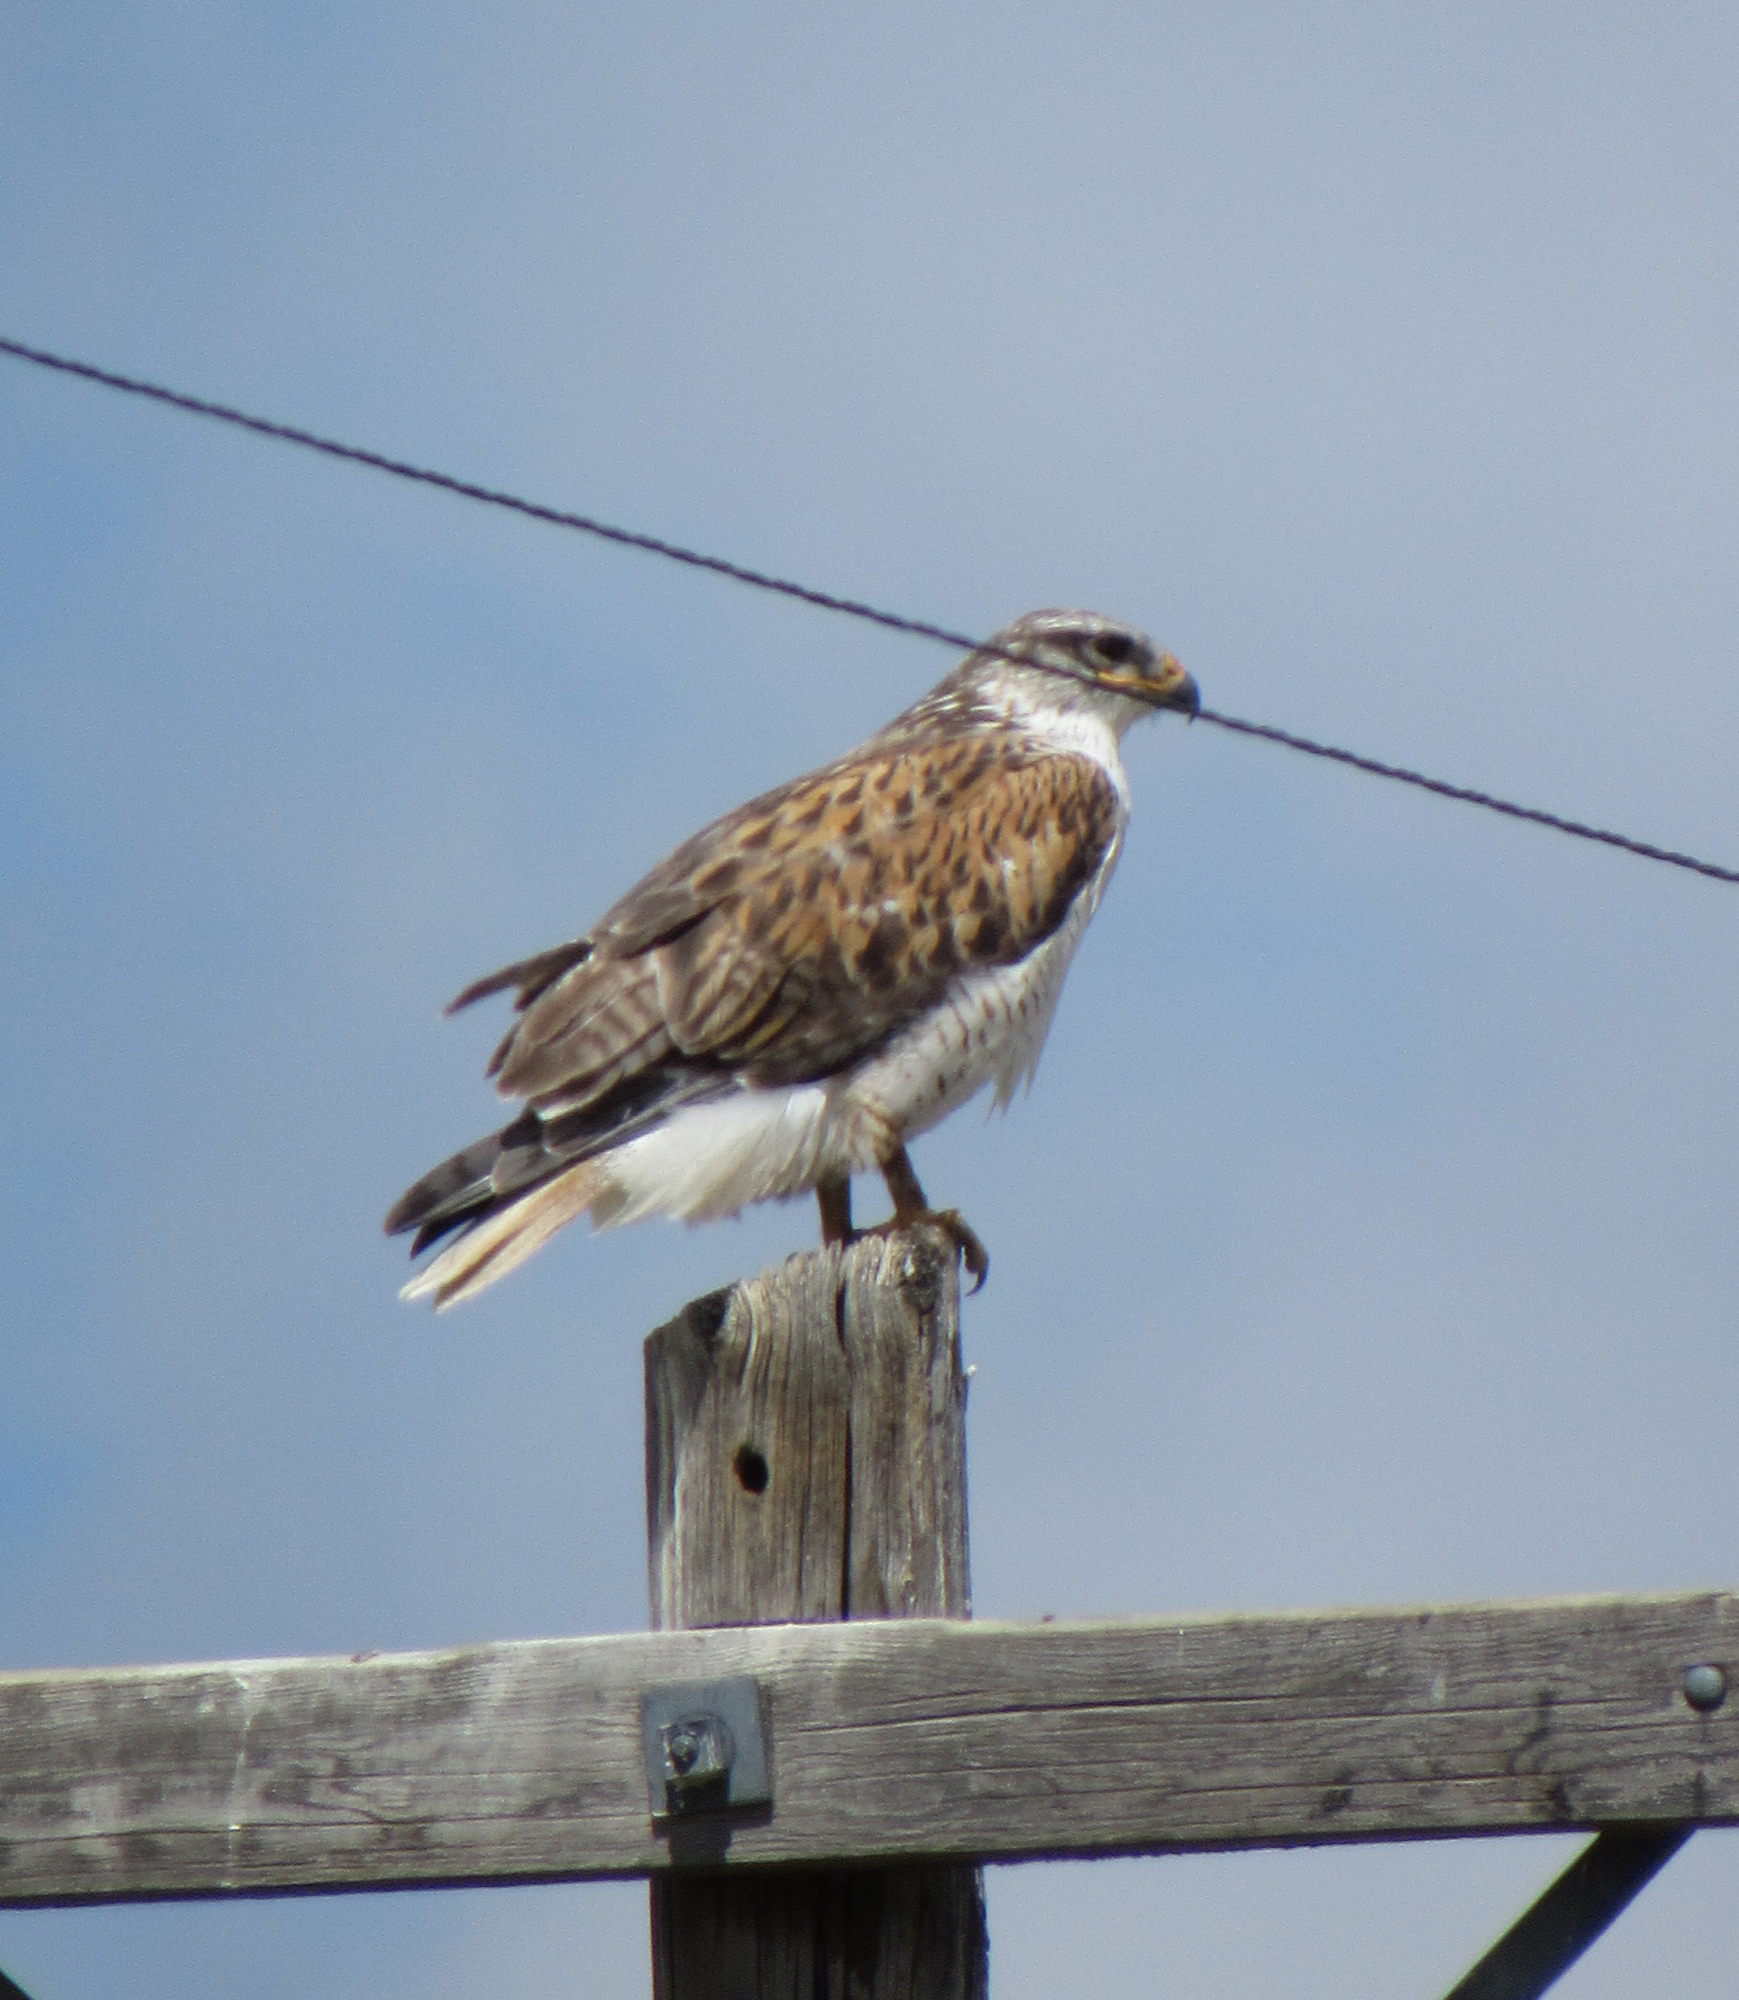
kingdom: Animalia
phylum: Chordata
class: Aves
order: Accipitriformes
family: Accipitridae
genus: Buteo
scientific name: Buteo regalis
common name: Ferruginous hawk
